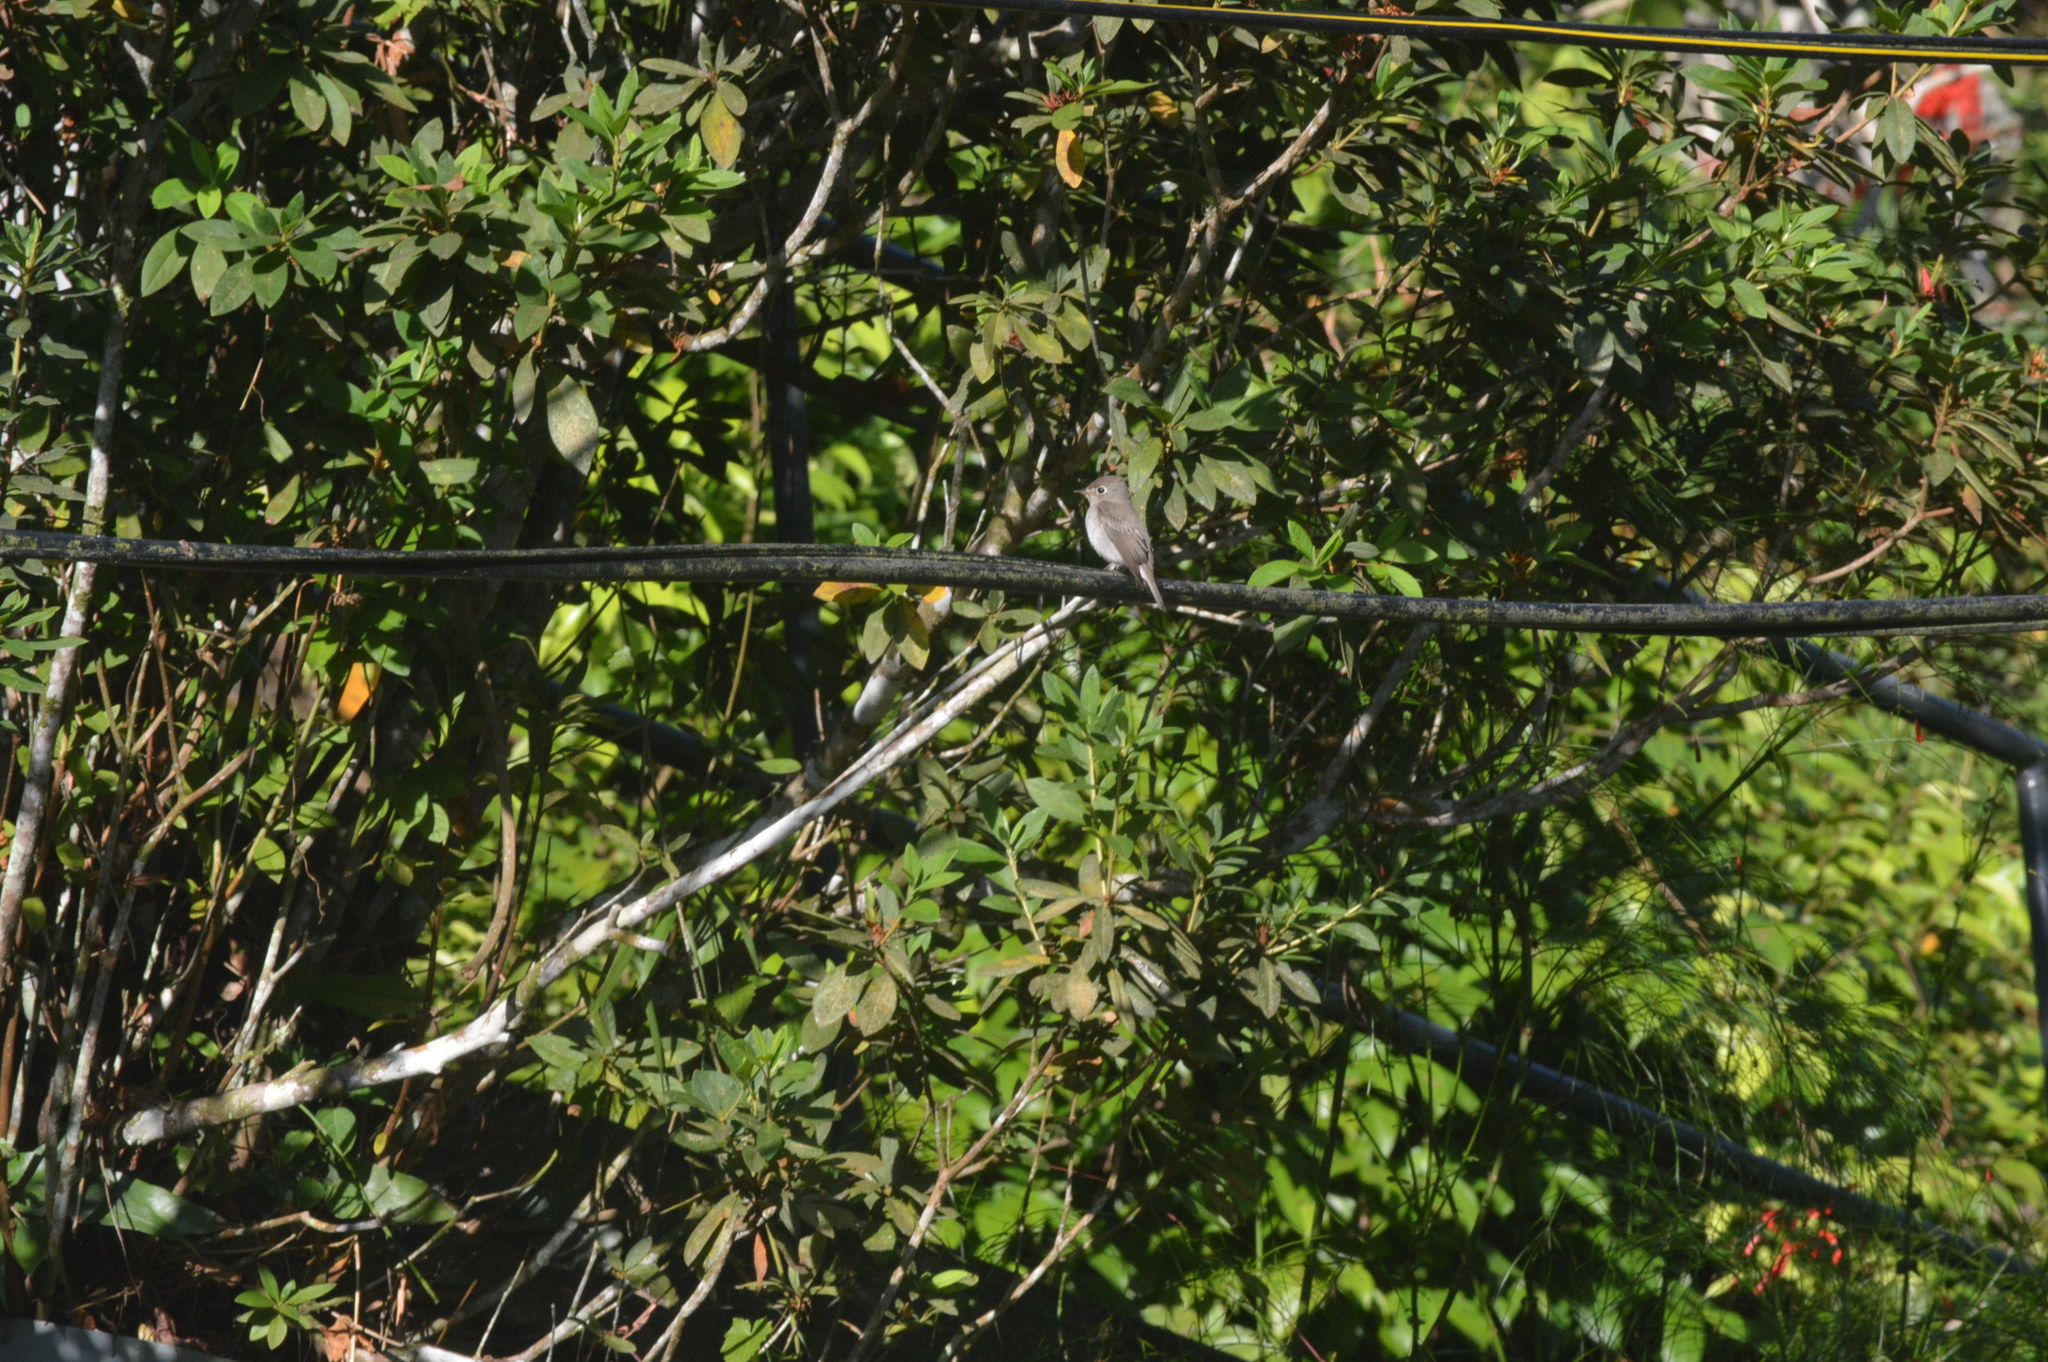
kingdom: Animalia
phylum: Chordata
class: Aves
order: Passeriformes
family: Muscicapidae
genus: Muscicapa
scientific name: Muscicapa latirostris
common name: Asian brown flycatcher
